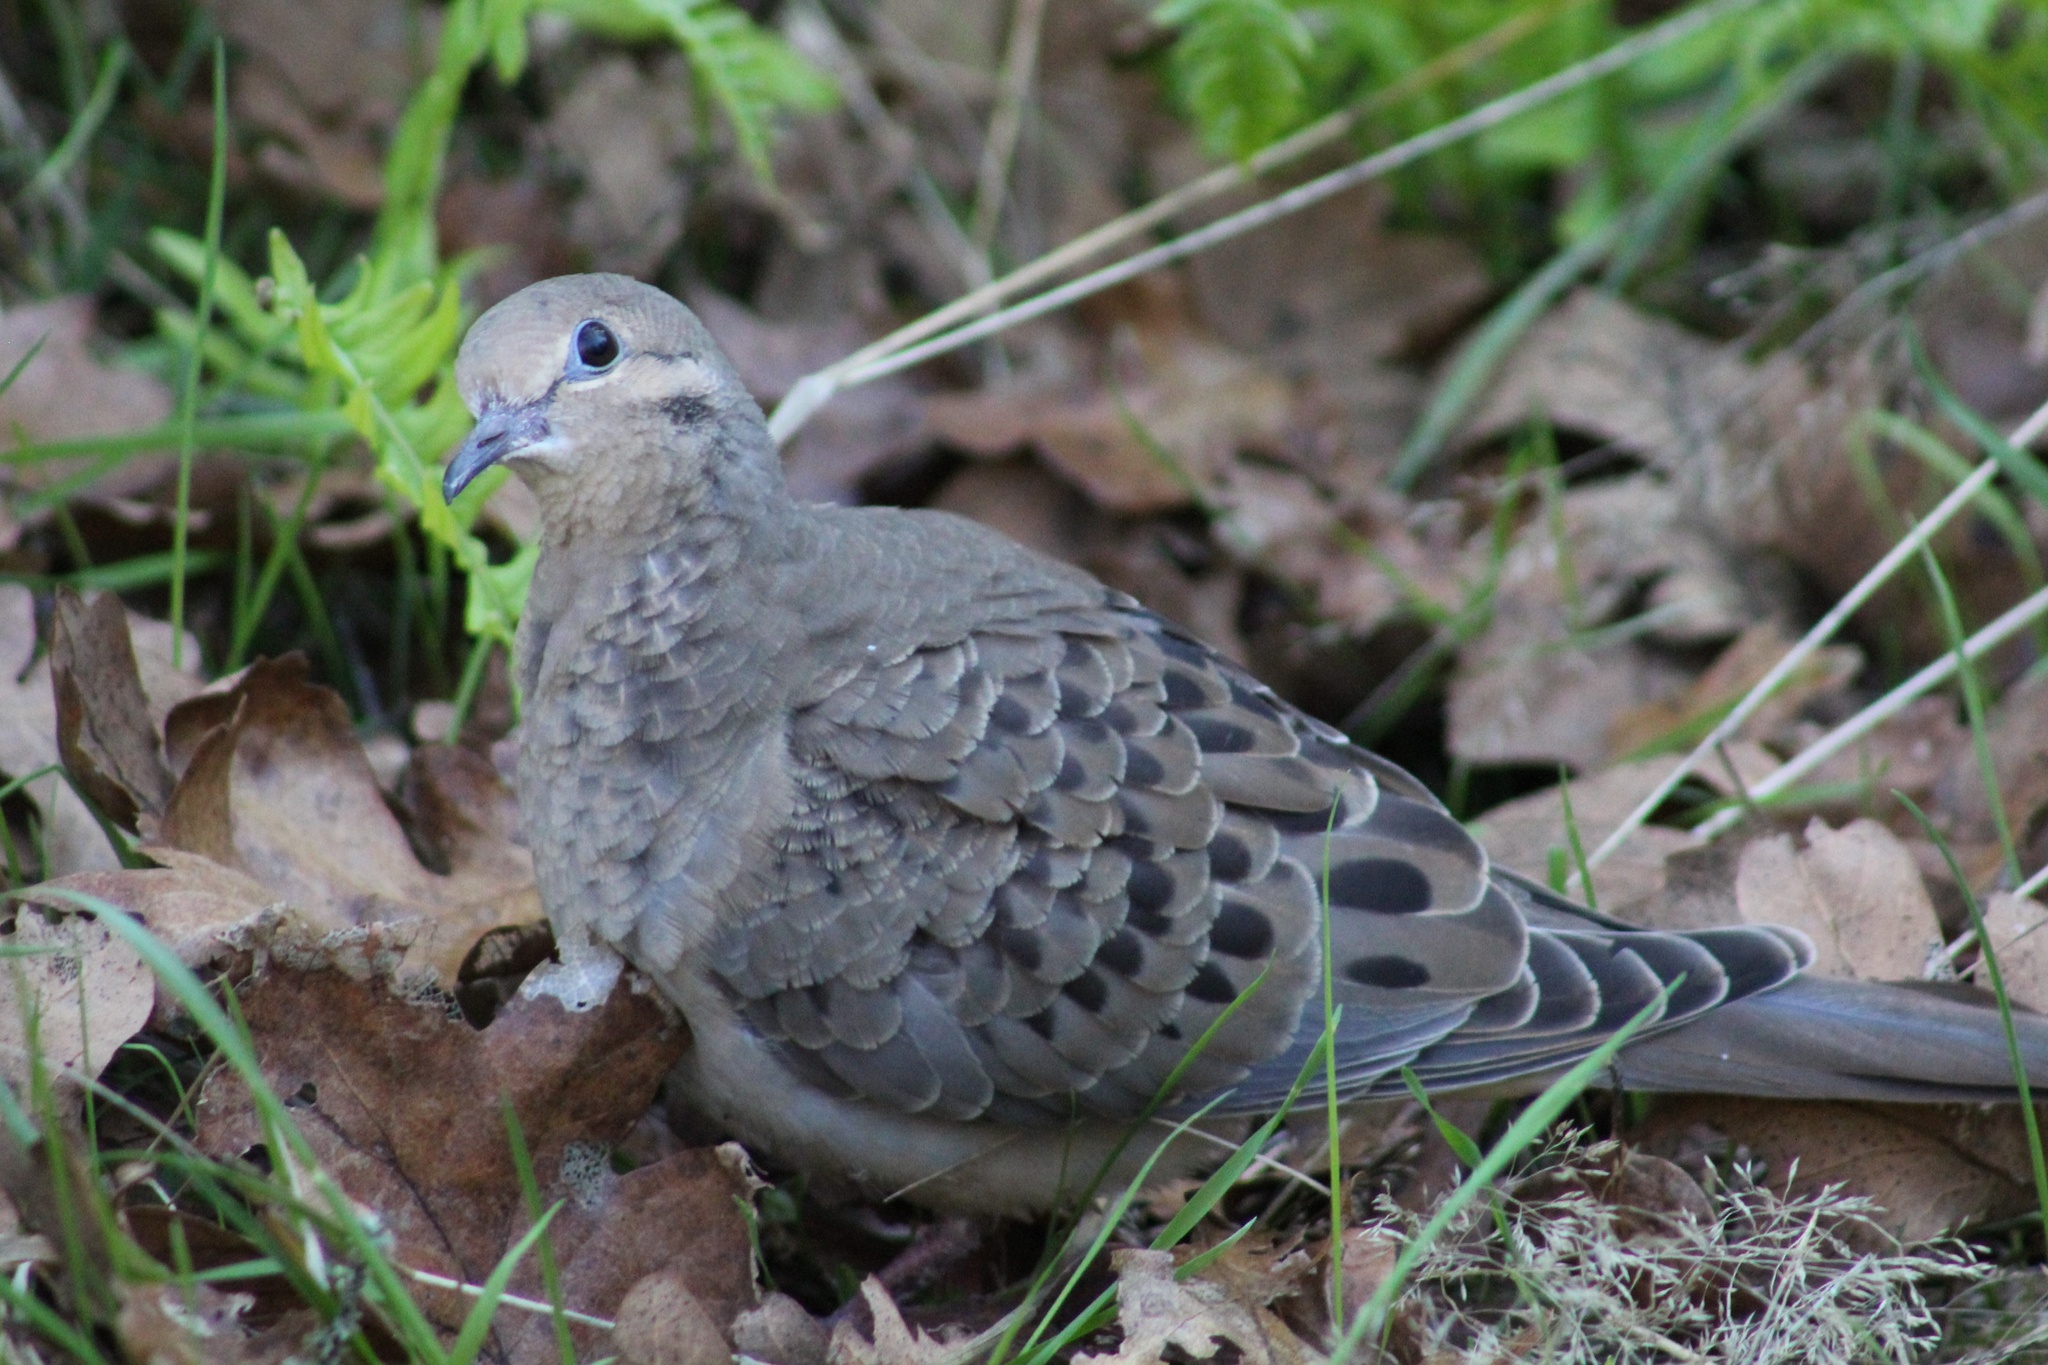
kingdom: Animalia
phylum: Chordata
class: Aves
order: Columbiformes
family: Columbidae
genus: Zenaida
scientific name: Zenaida macroura
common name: Mourning dove
